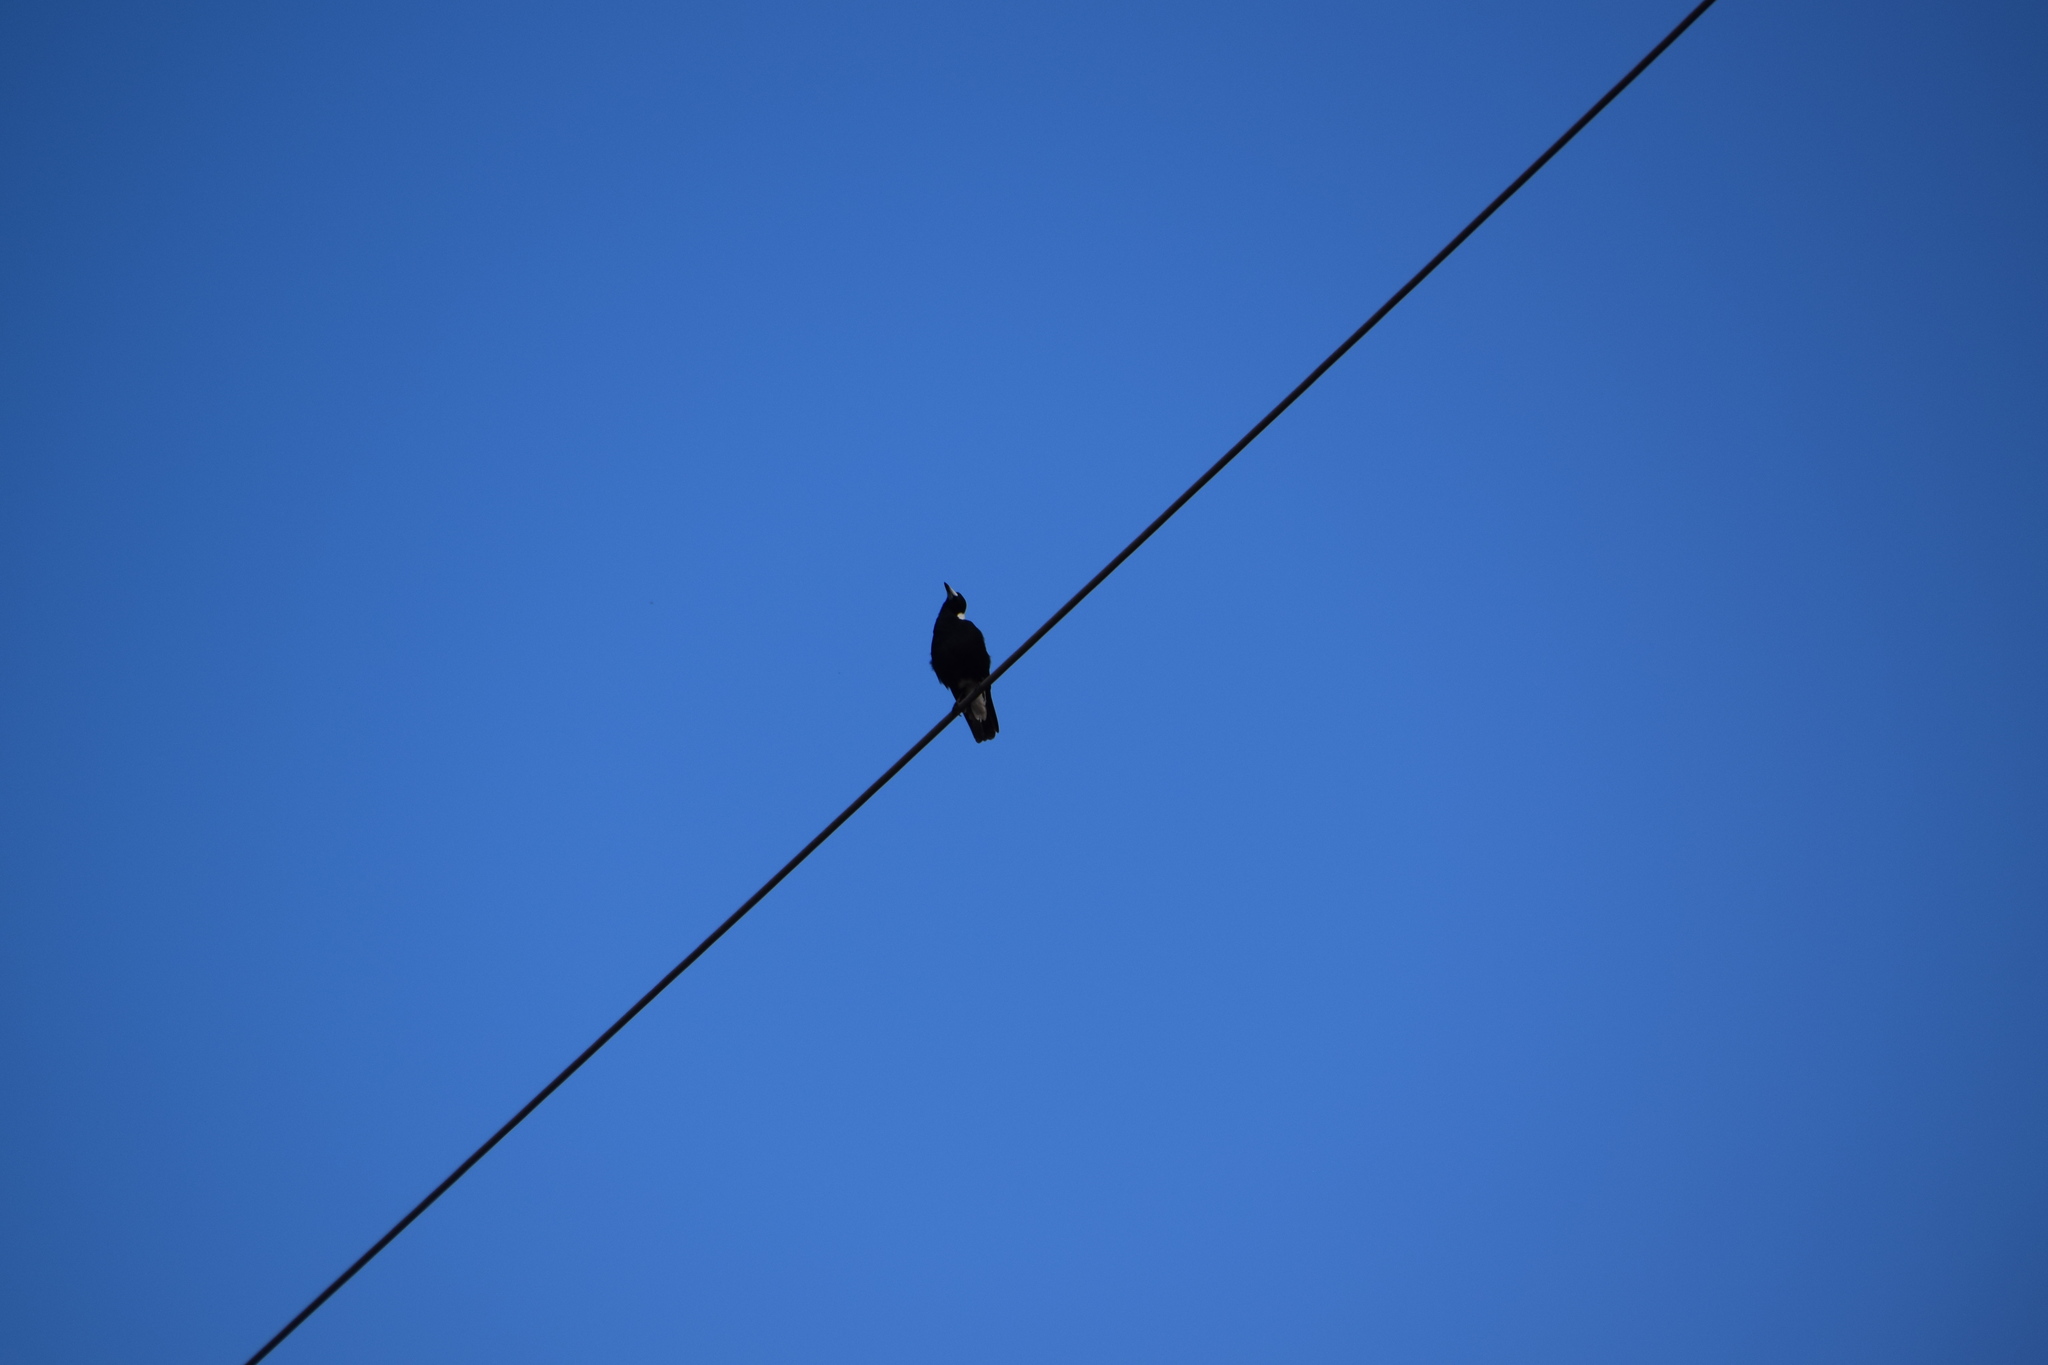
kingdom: Animalia
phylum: Chordata
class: Aves
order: Passeriformes
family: Cracticidae
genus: Gymnorhina
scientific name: Gymnorhina tibicen
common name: Australian magpie
